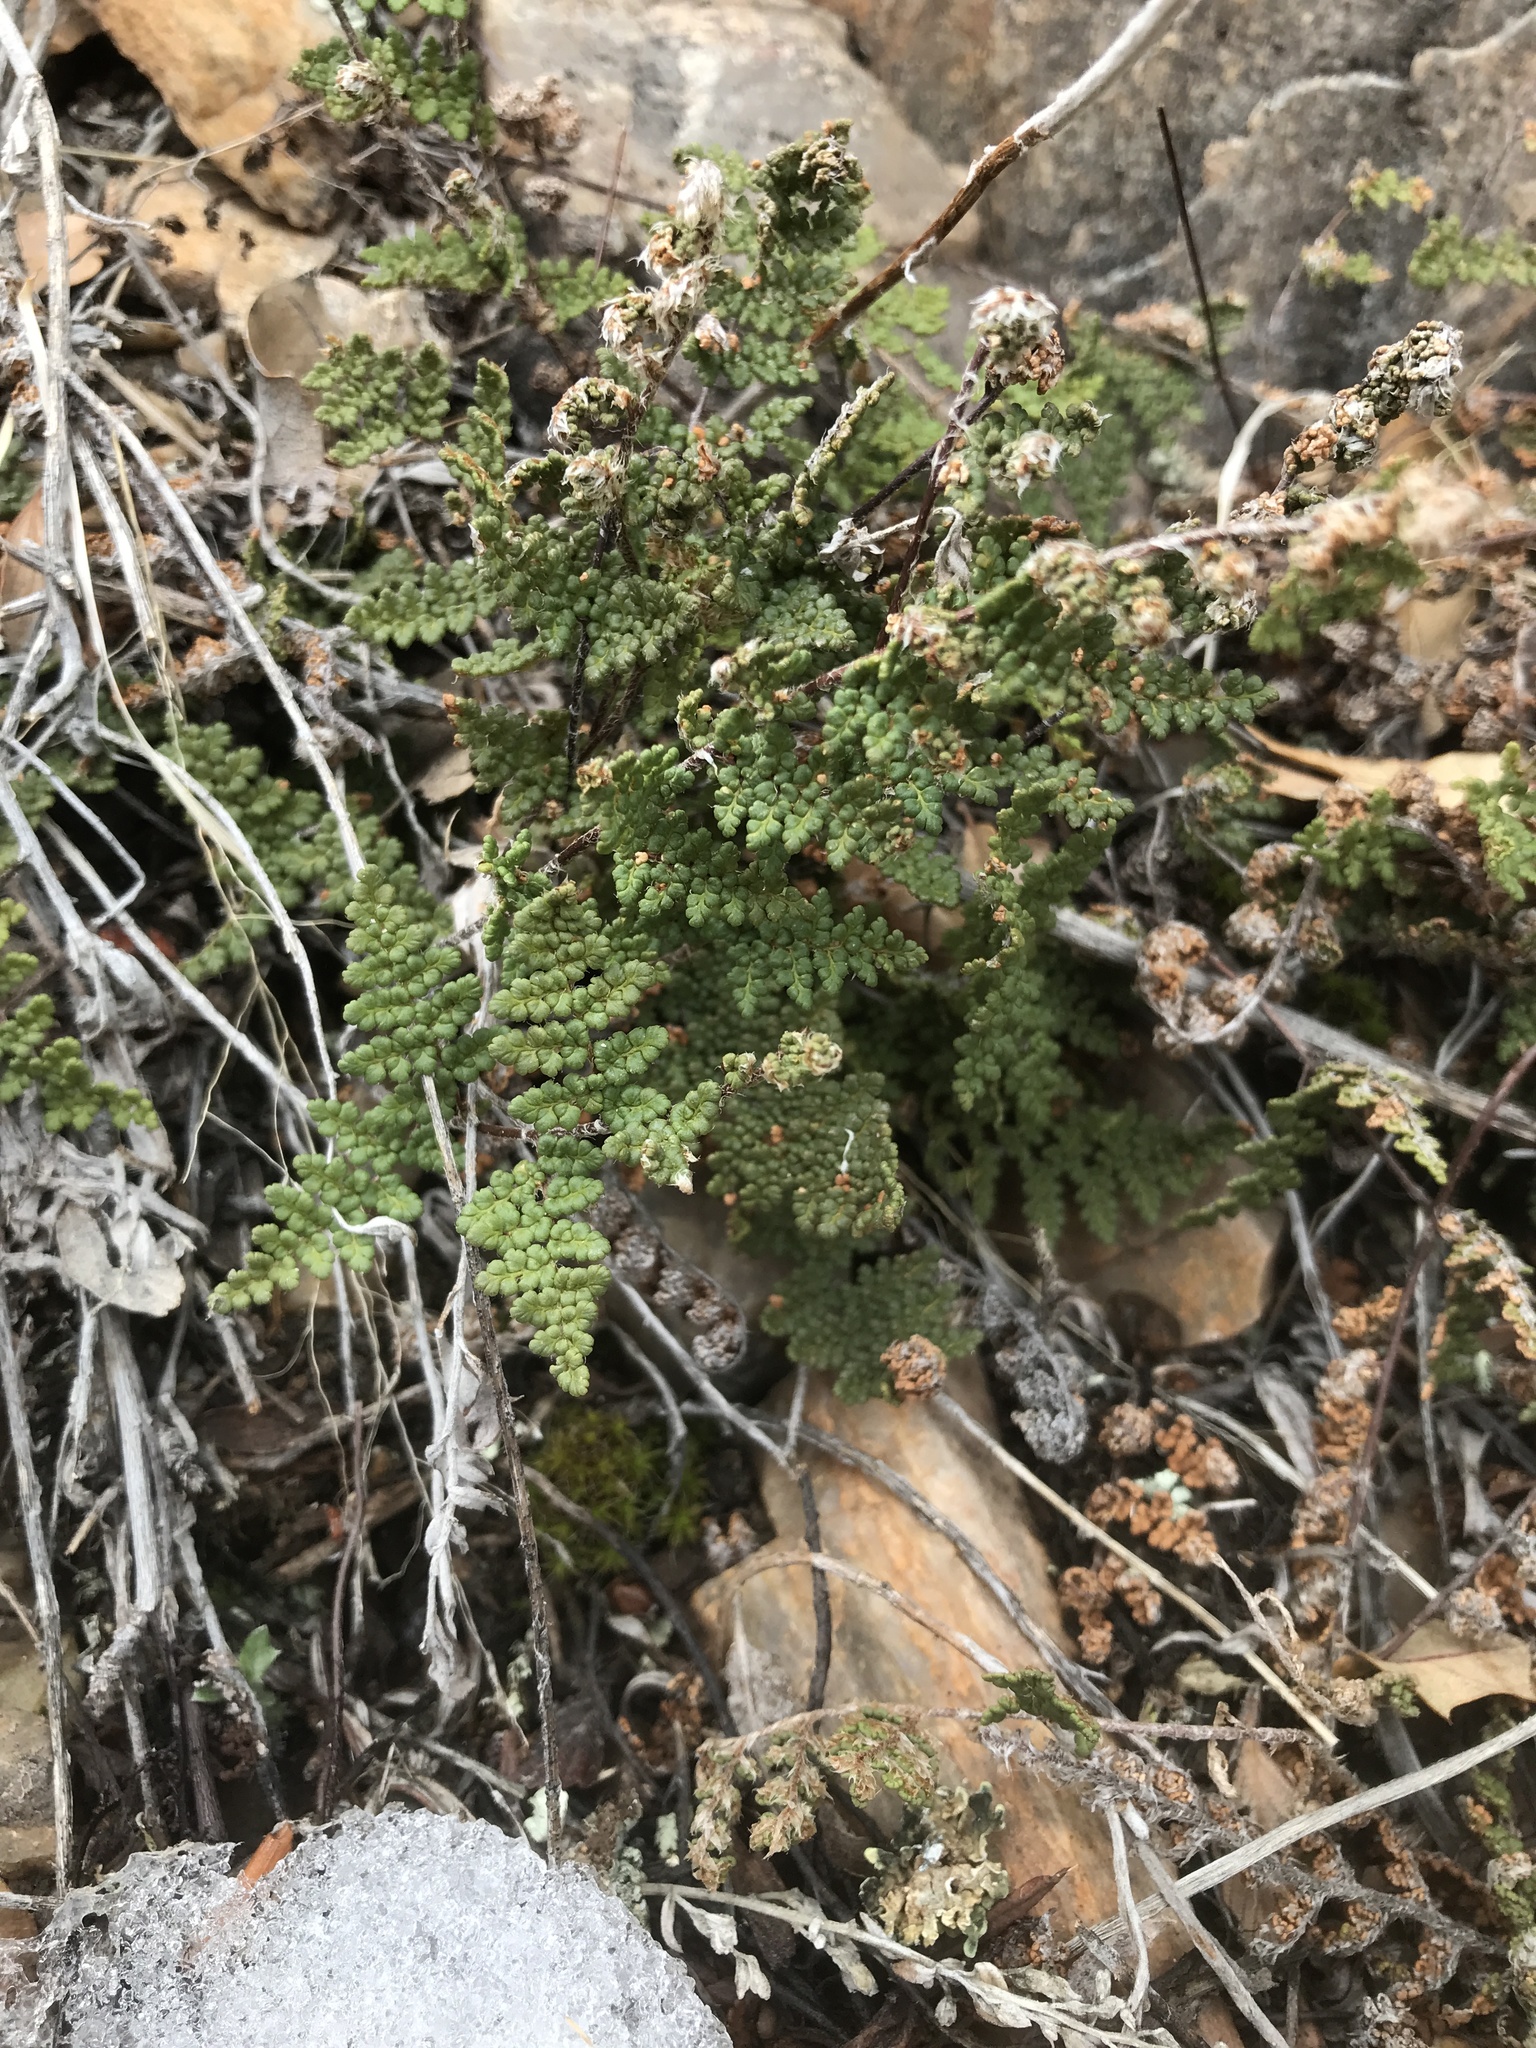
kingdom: Plantae
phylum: Tracheophyta
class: Polypodiopsida
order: Polypodiales
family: Pteridaceae
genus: Myriopteris
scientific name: Myriopteris fendleri
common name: Fendler's lip fern
